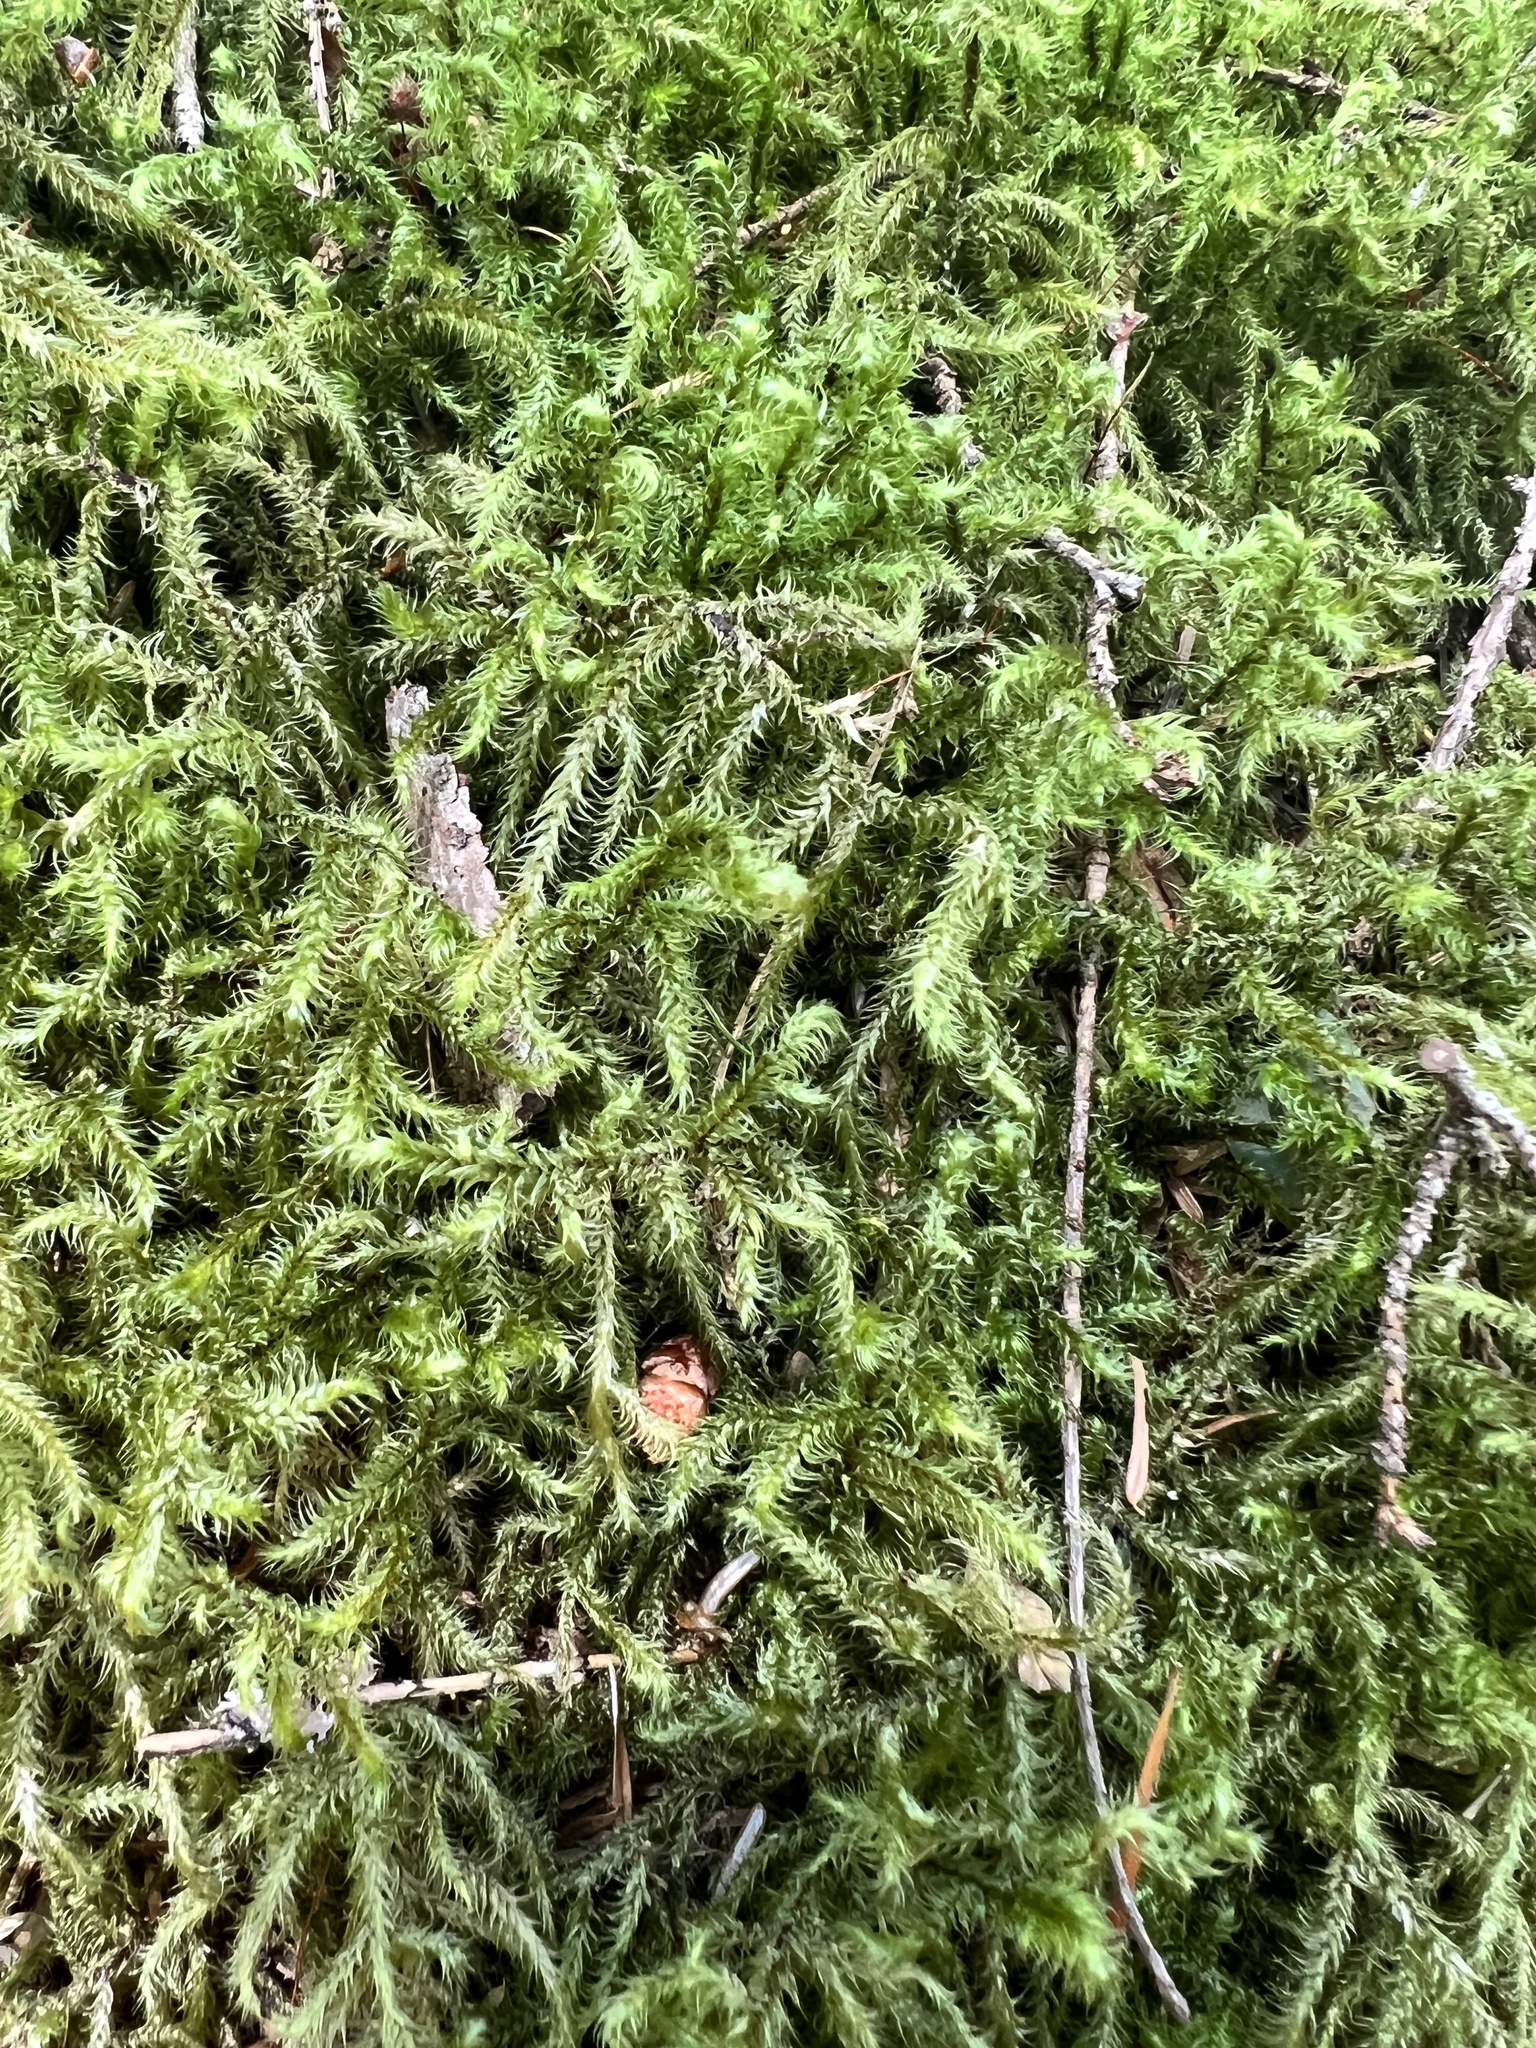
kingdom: Plantae
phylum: Bryophyta
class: Bryopsida
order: Hypnales
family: Hylocomiaceae
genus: Rhytidiadelphus
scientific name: Rhytidiadelphus loreus
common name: Lanky moss
